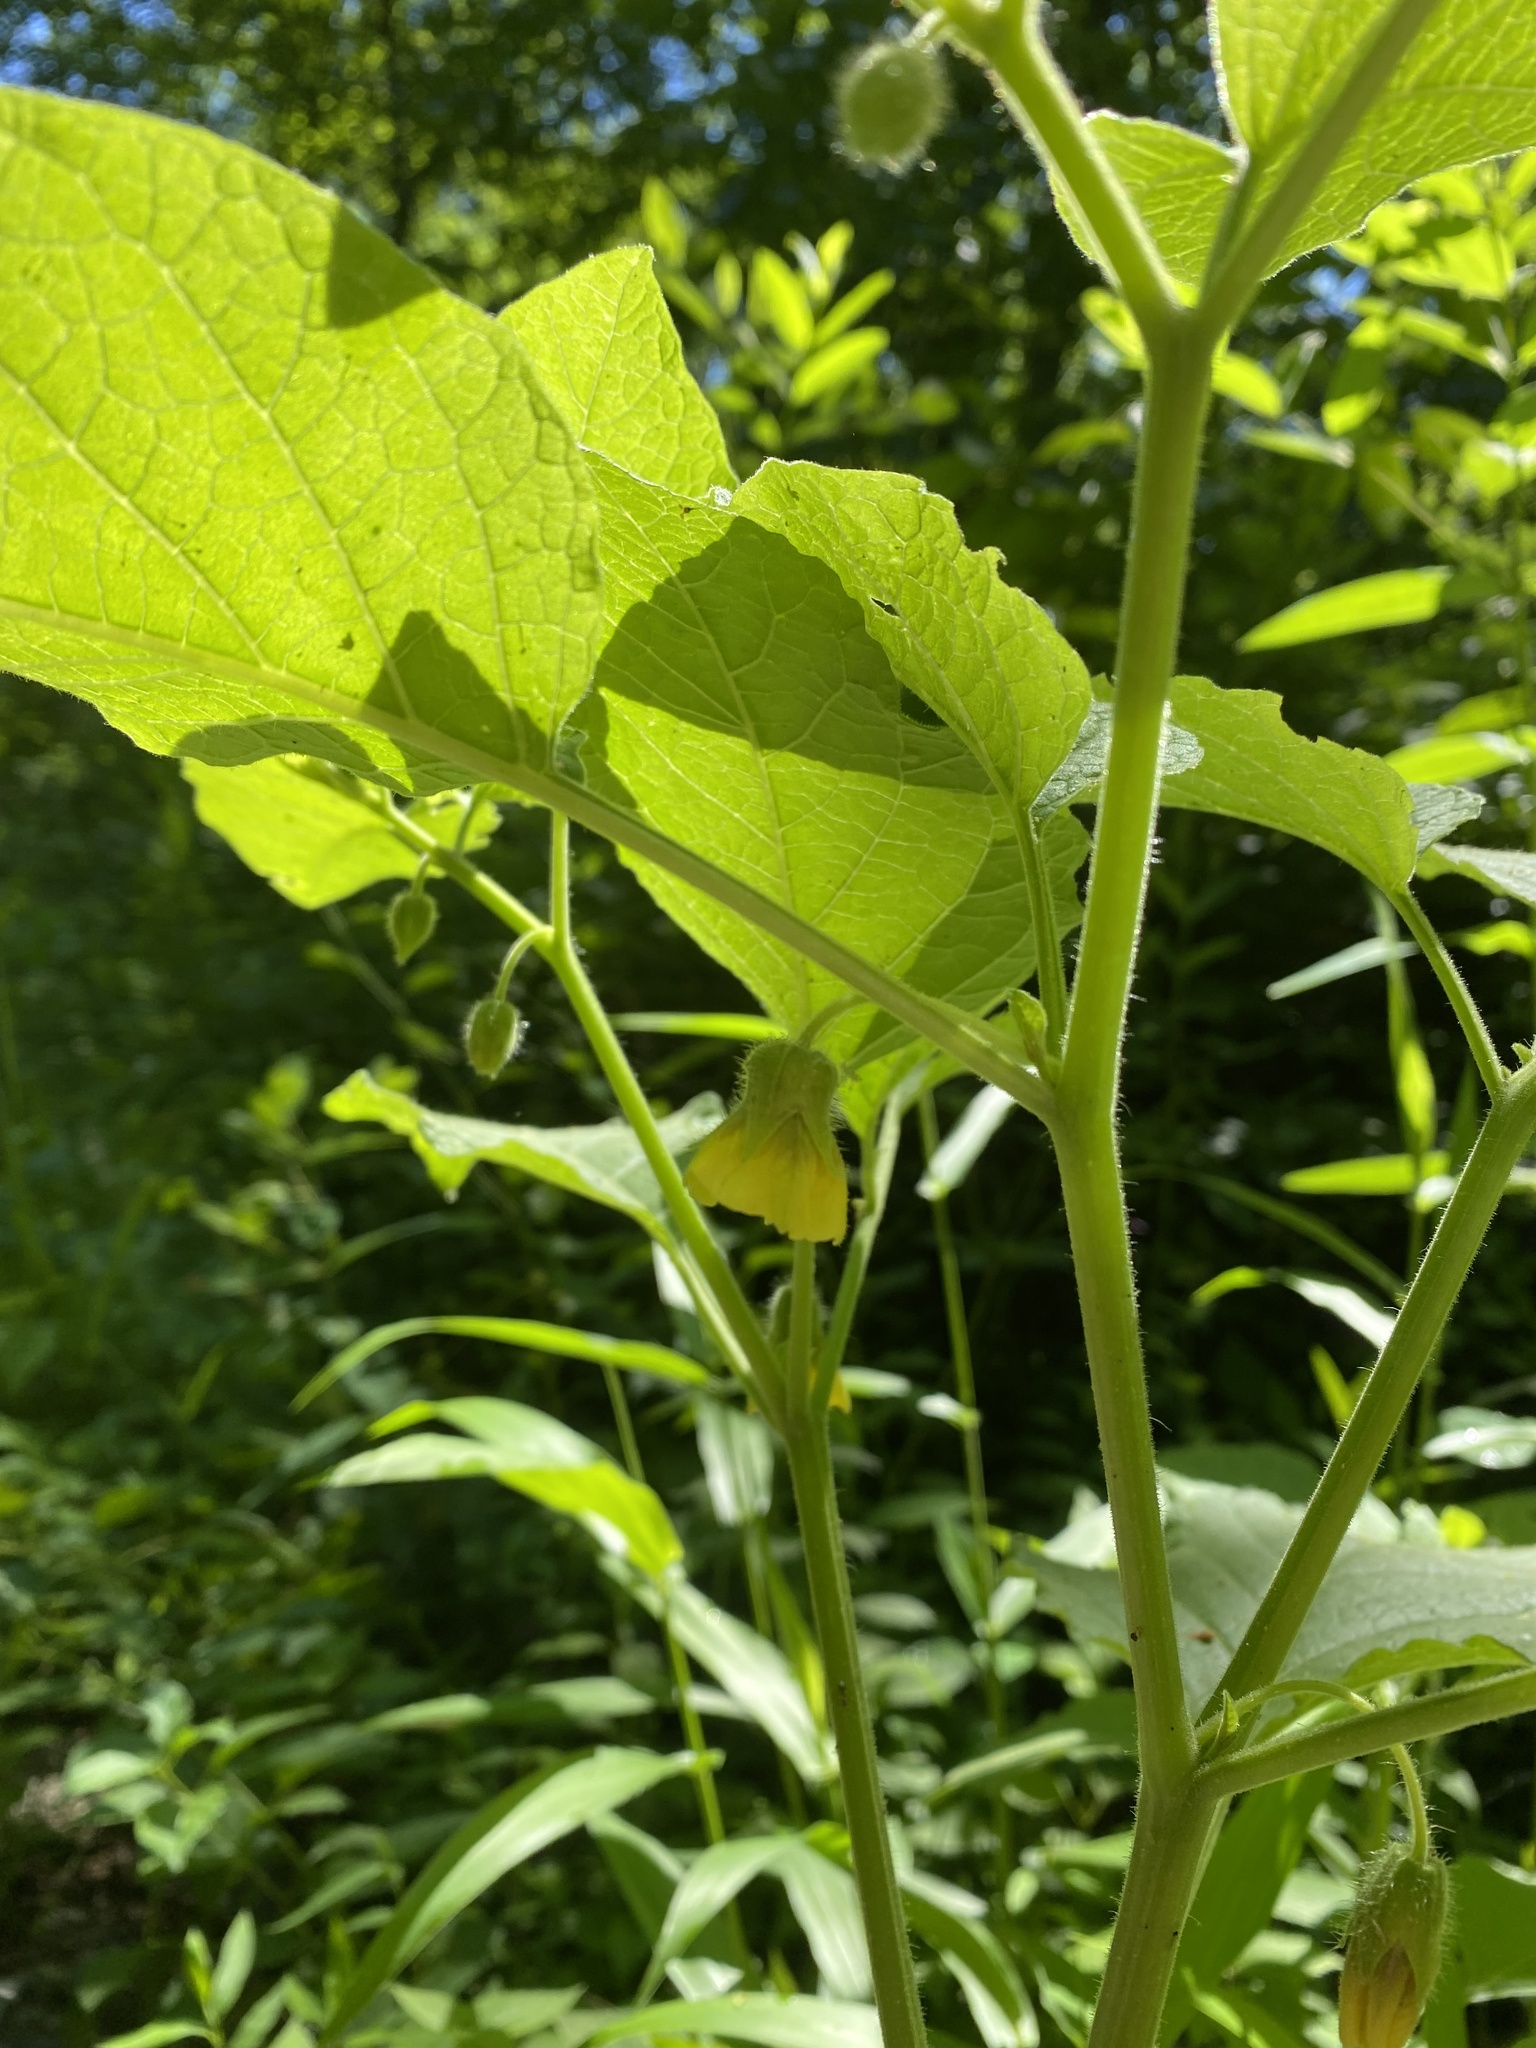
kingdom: Plantae
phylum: Tracheophyta
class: Magnoliopsida
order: Solanales
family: Solanaceae
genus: Physalis
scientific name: Physalis heterophylla
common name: Clammy ground-cherry
